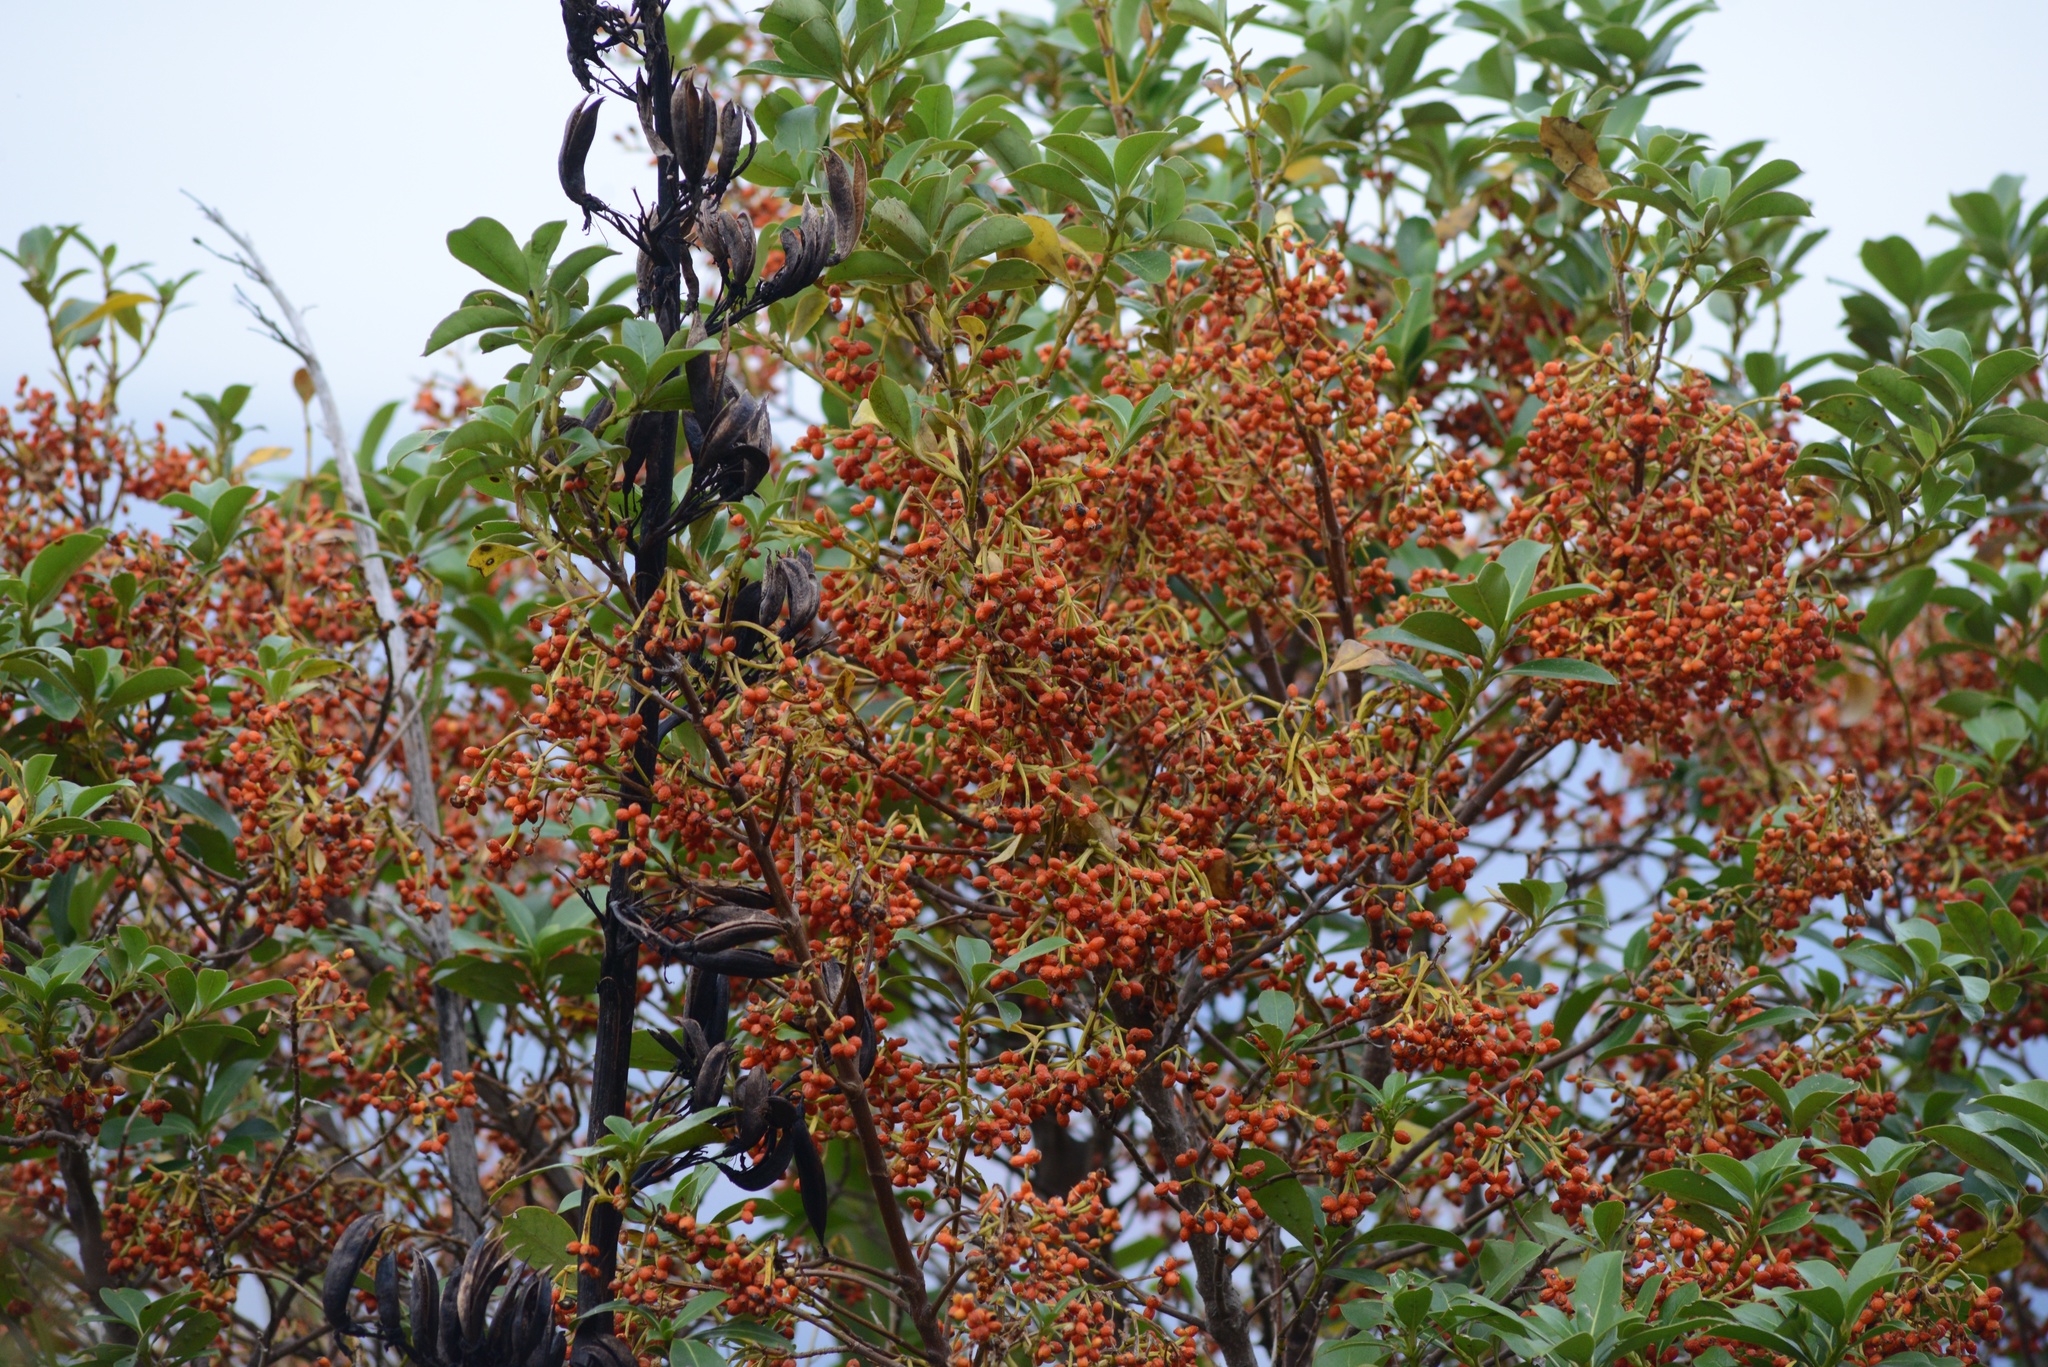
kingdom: Plantae
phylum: Tracheophyta
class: Magnoliopsida
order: Gentianales
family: Rubiaceae
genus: Coprosma
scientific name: Coprosma lucida
